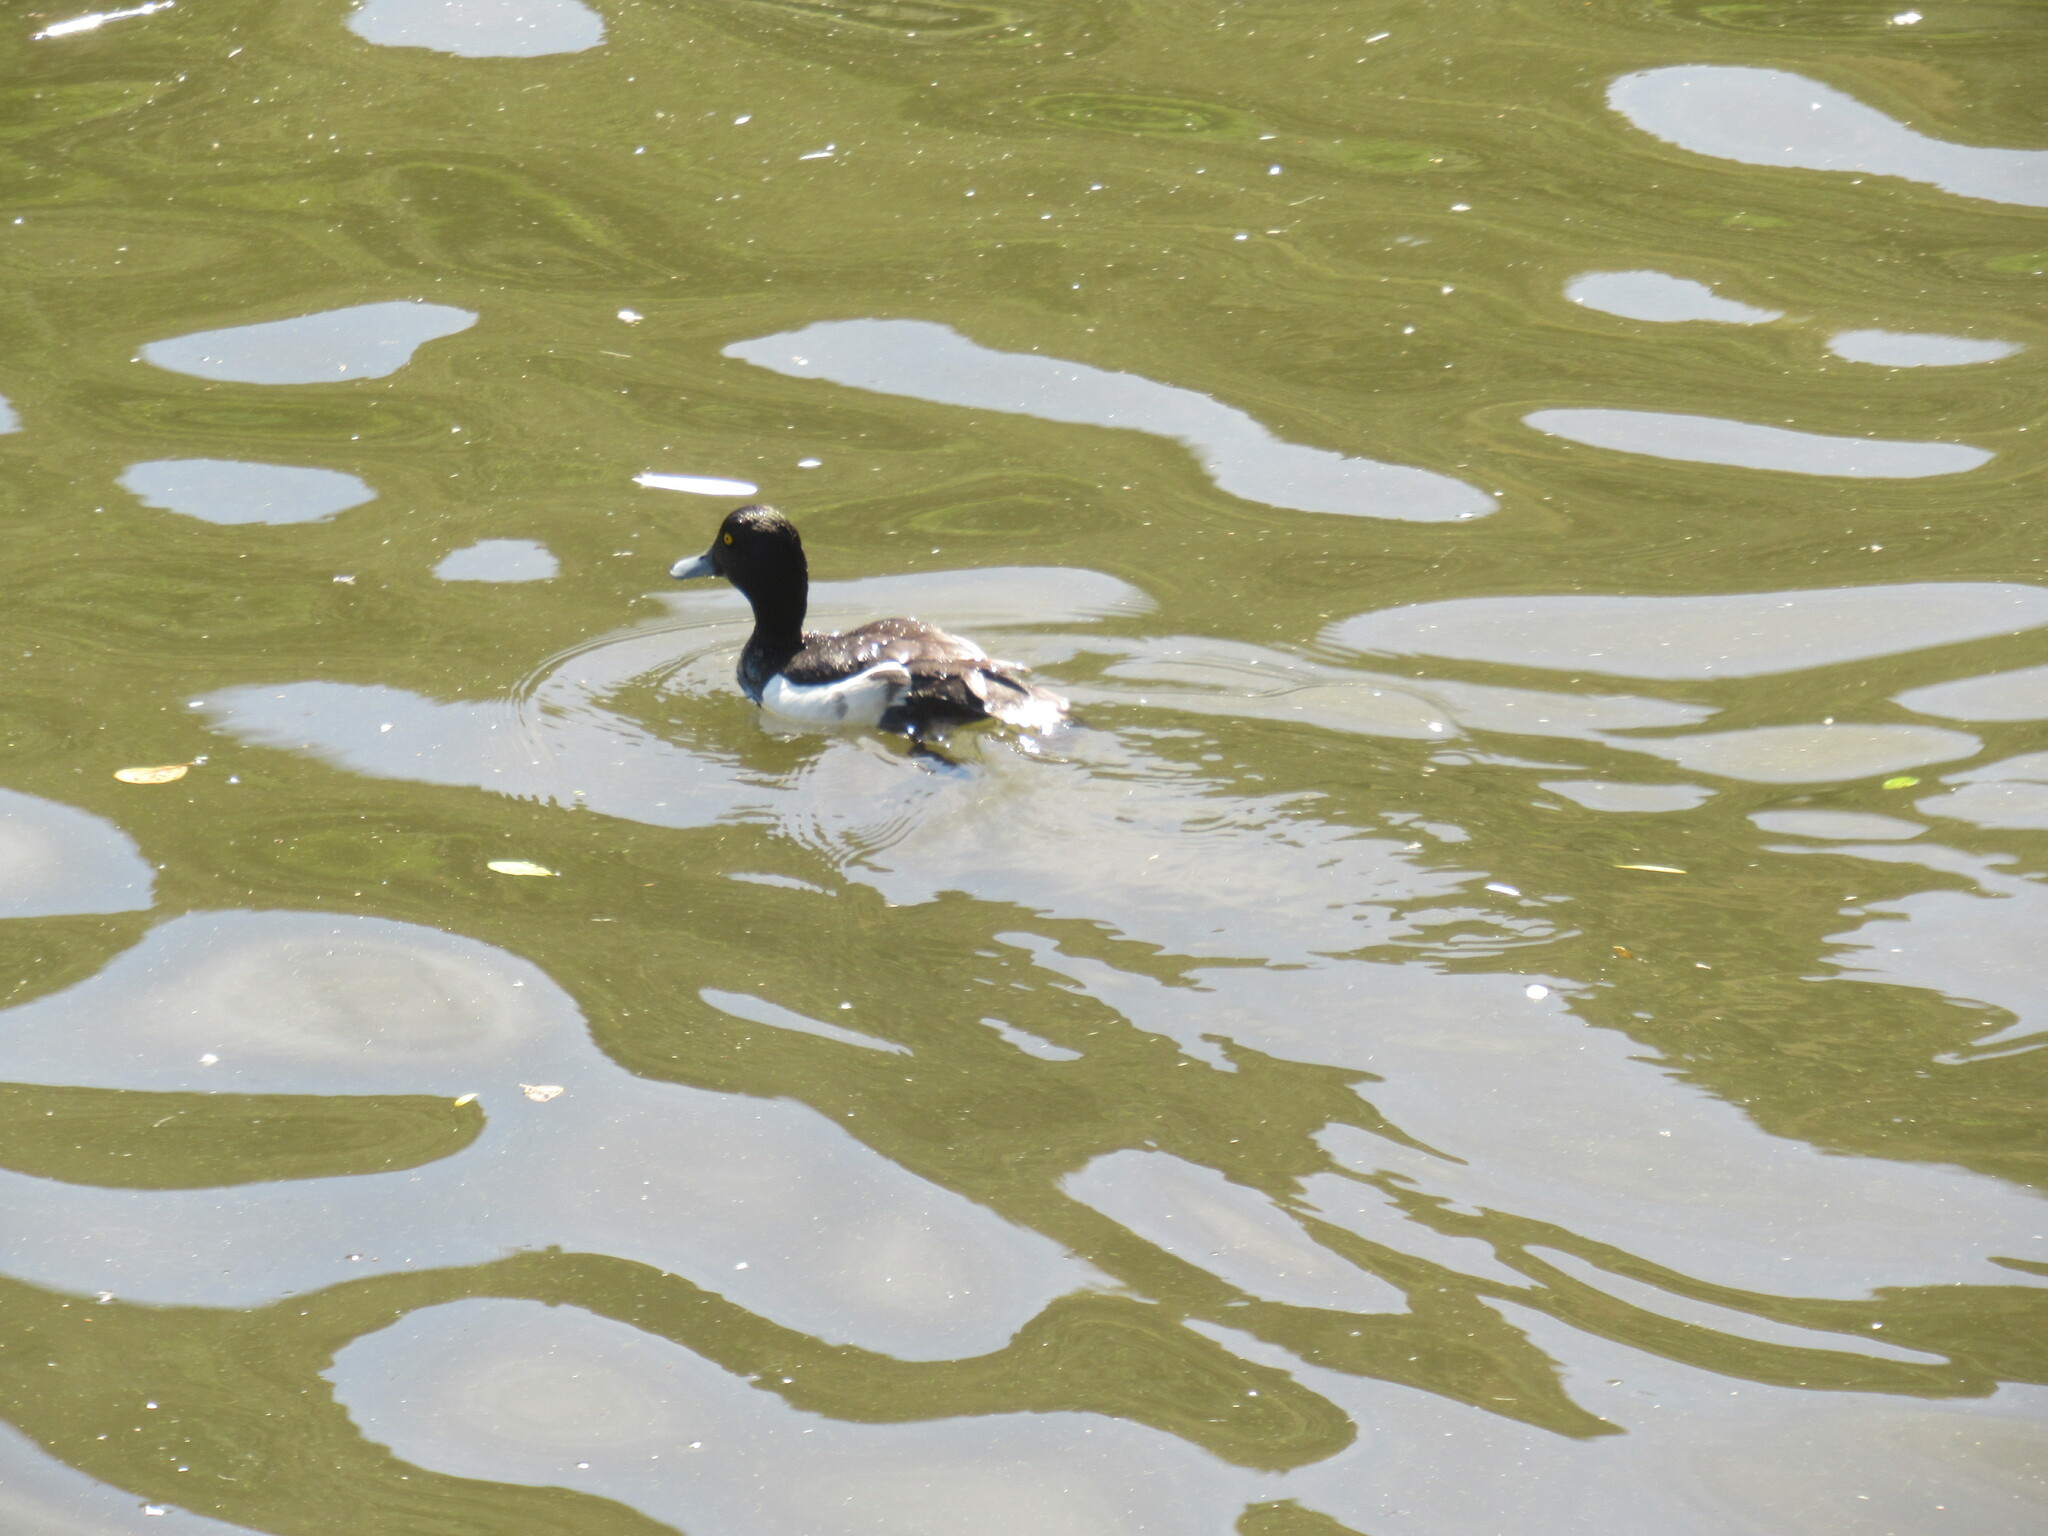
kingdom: Animalia
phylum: Chordata
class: Aves
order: Anseriformes
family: Anatidae
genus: Aythya
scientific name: Aythya fuligula
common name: Tufted duck
